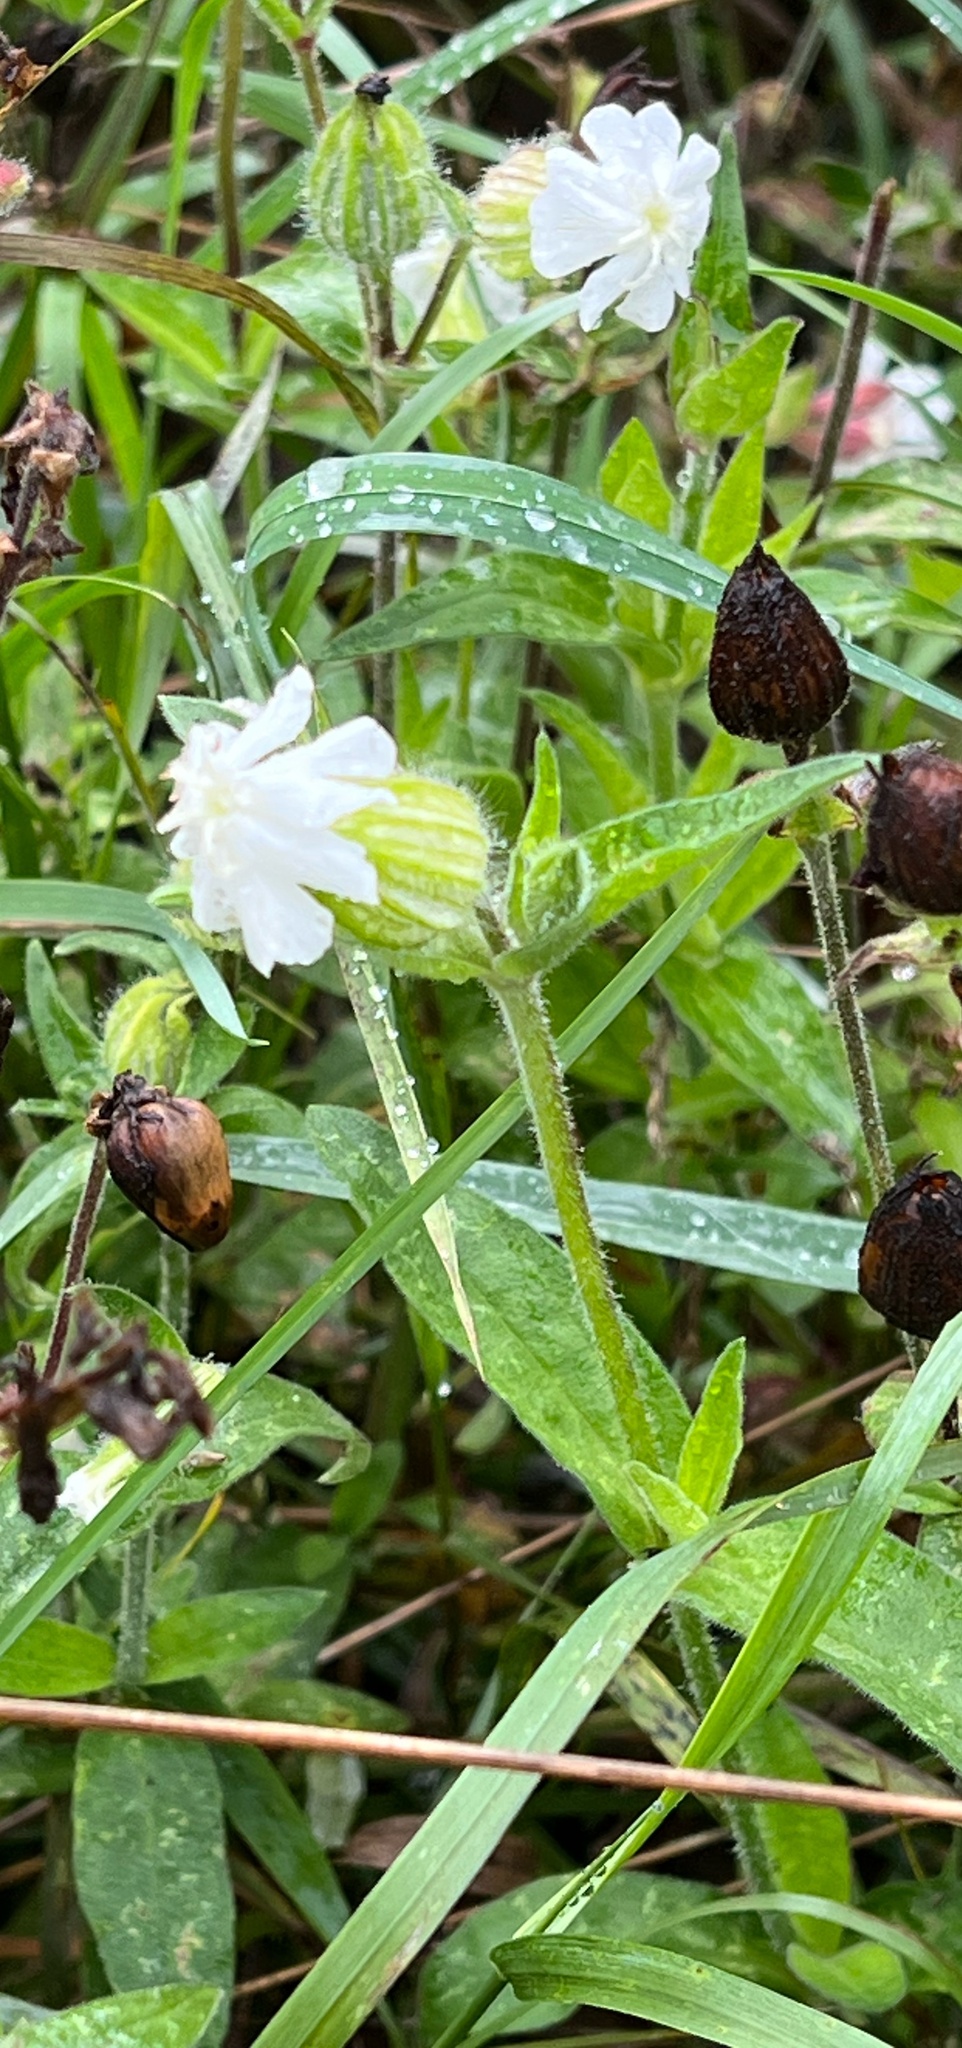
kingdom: Plantae
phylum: Tracheophyta
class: Magnoliopsida
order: Caryophyllales
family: Caryophyllaceae
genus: Silene
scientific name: Silene latifolia
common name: White campion
